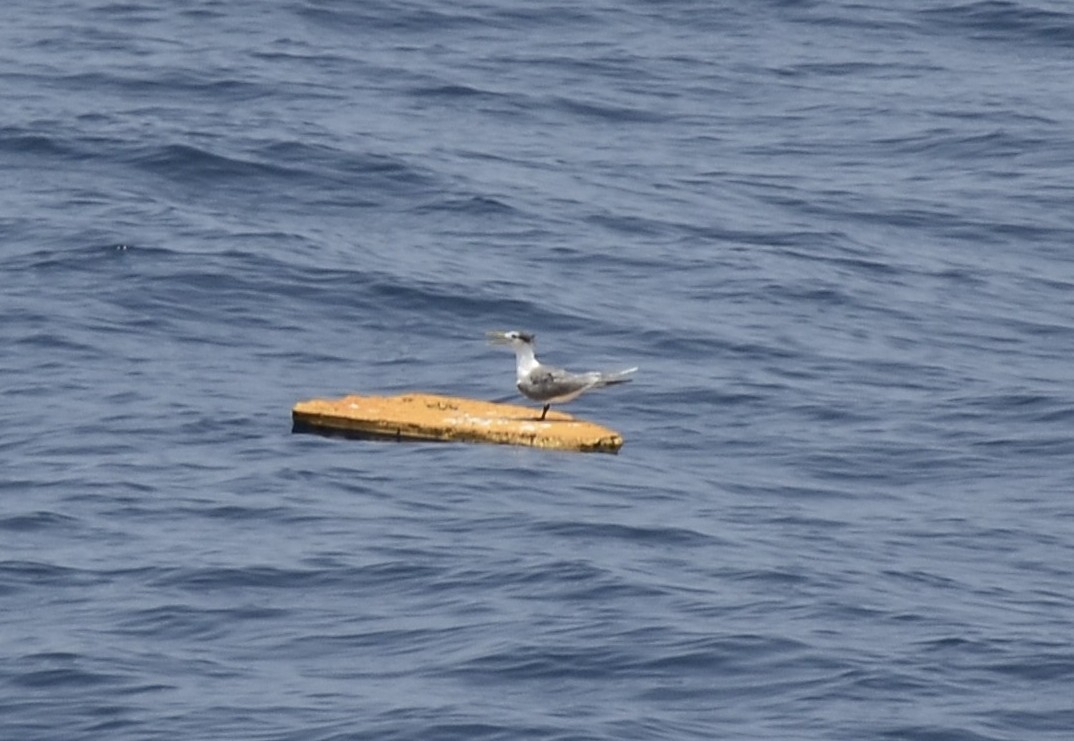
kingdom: Animalia
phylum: Chordata
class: Aves
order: Charadriiformes
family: Laridae
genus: Thalasseus
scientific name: Thalasseus bergii
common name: Greater crested tern
